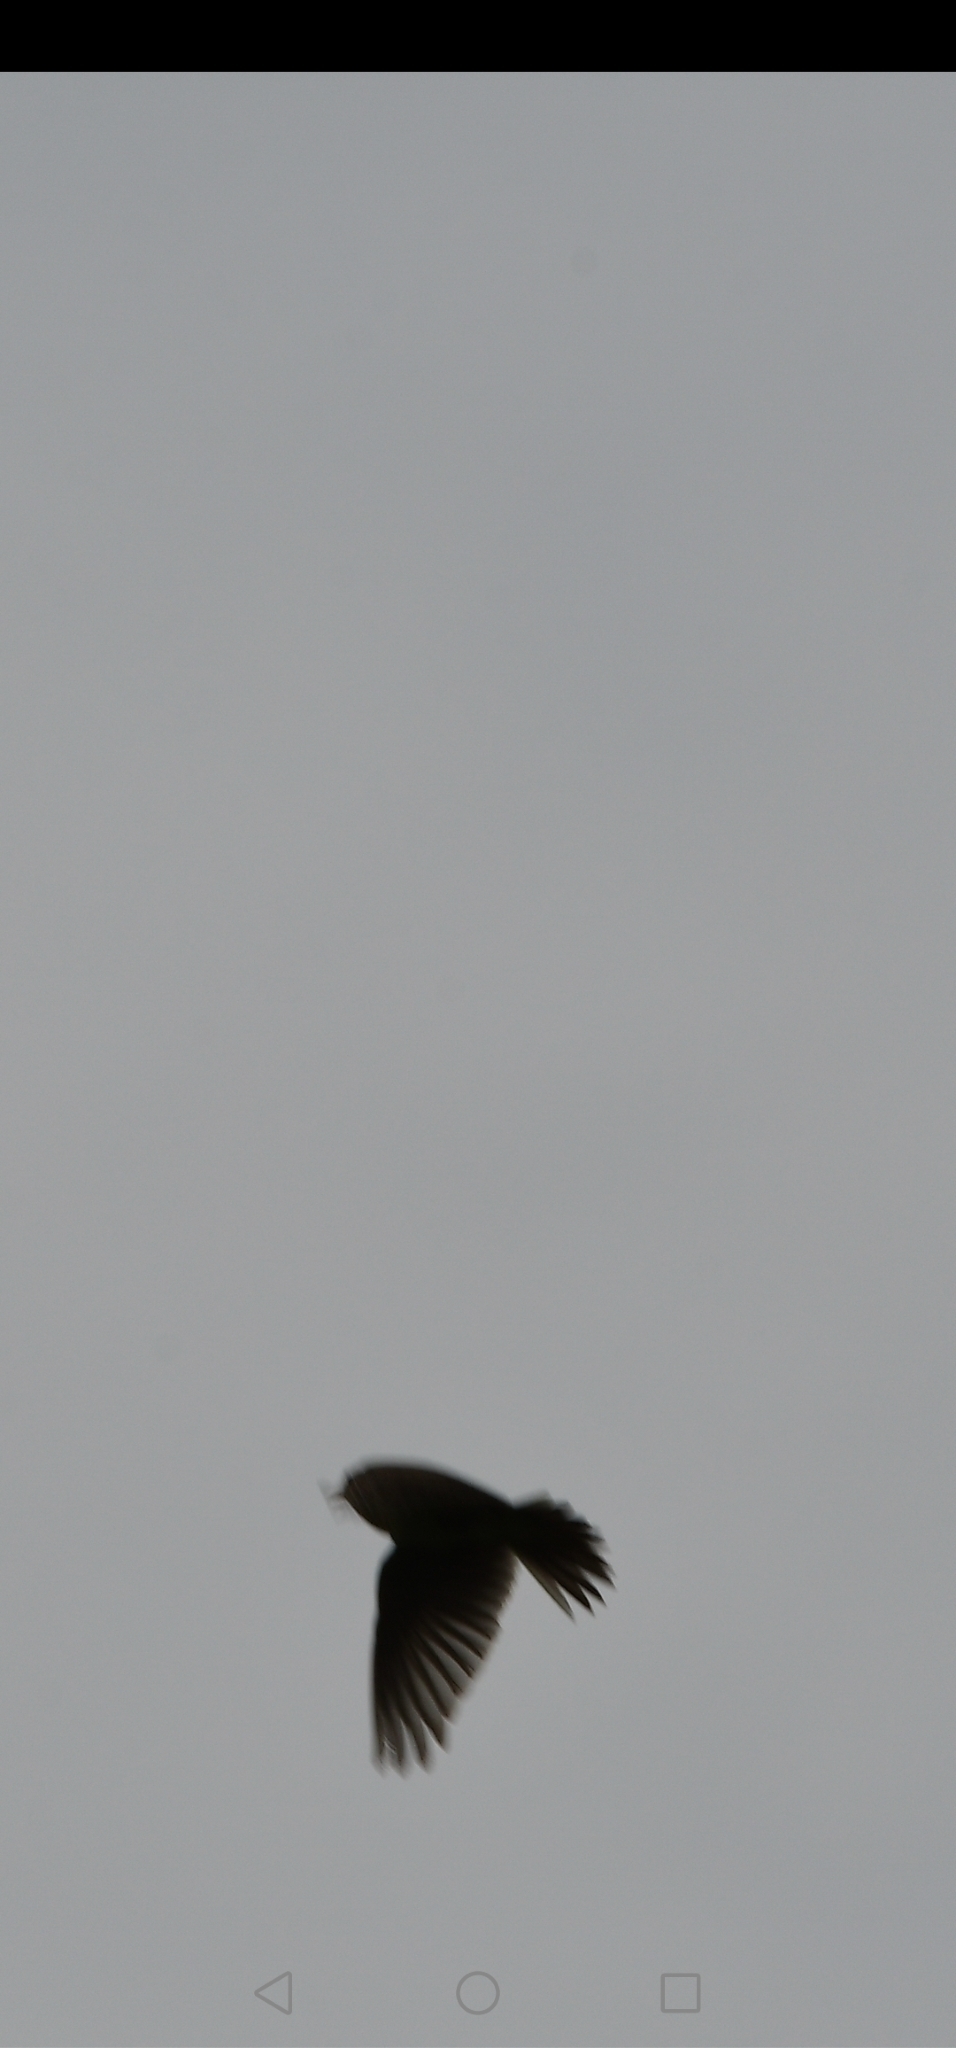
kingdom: Animalia
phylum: Chordata
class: Aves
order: Passeriformes
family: Alaudidae
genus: Alauda
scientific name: Alauda arvensis
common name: Eurasian skylark
